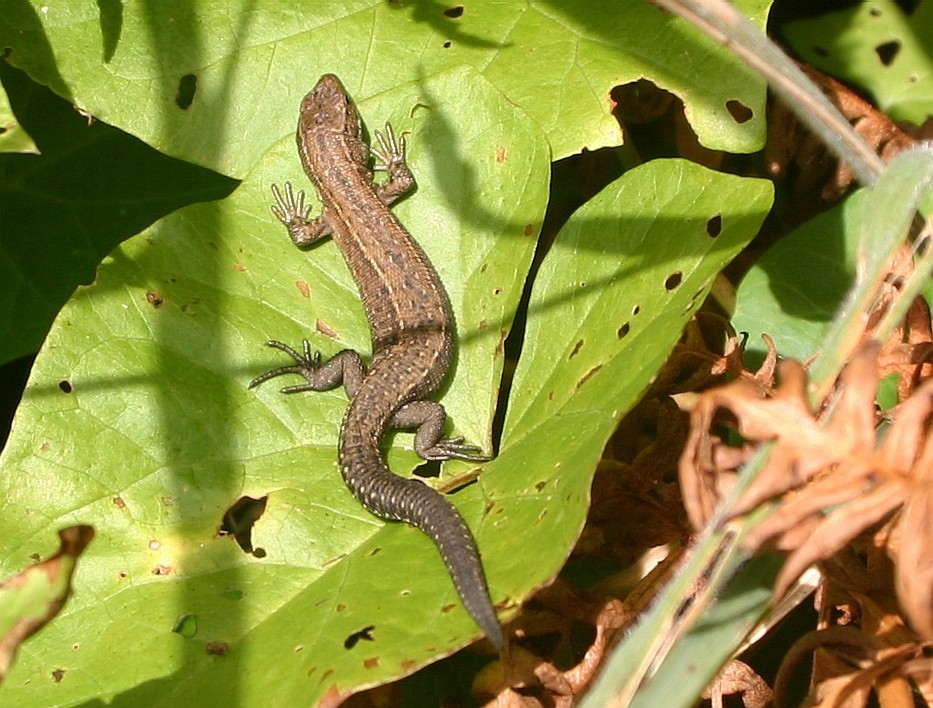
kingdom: Animalia
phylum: Chordata
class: Squamata
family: Lacertidae
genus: Zootoca
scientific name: Zootoca vivipara
